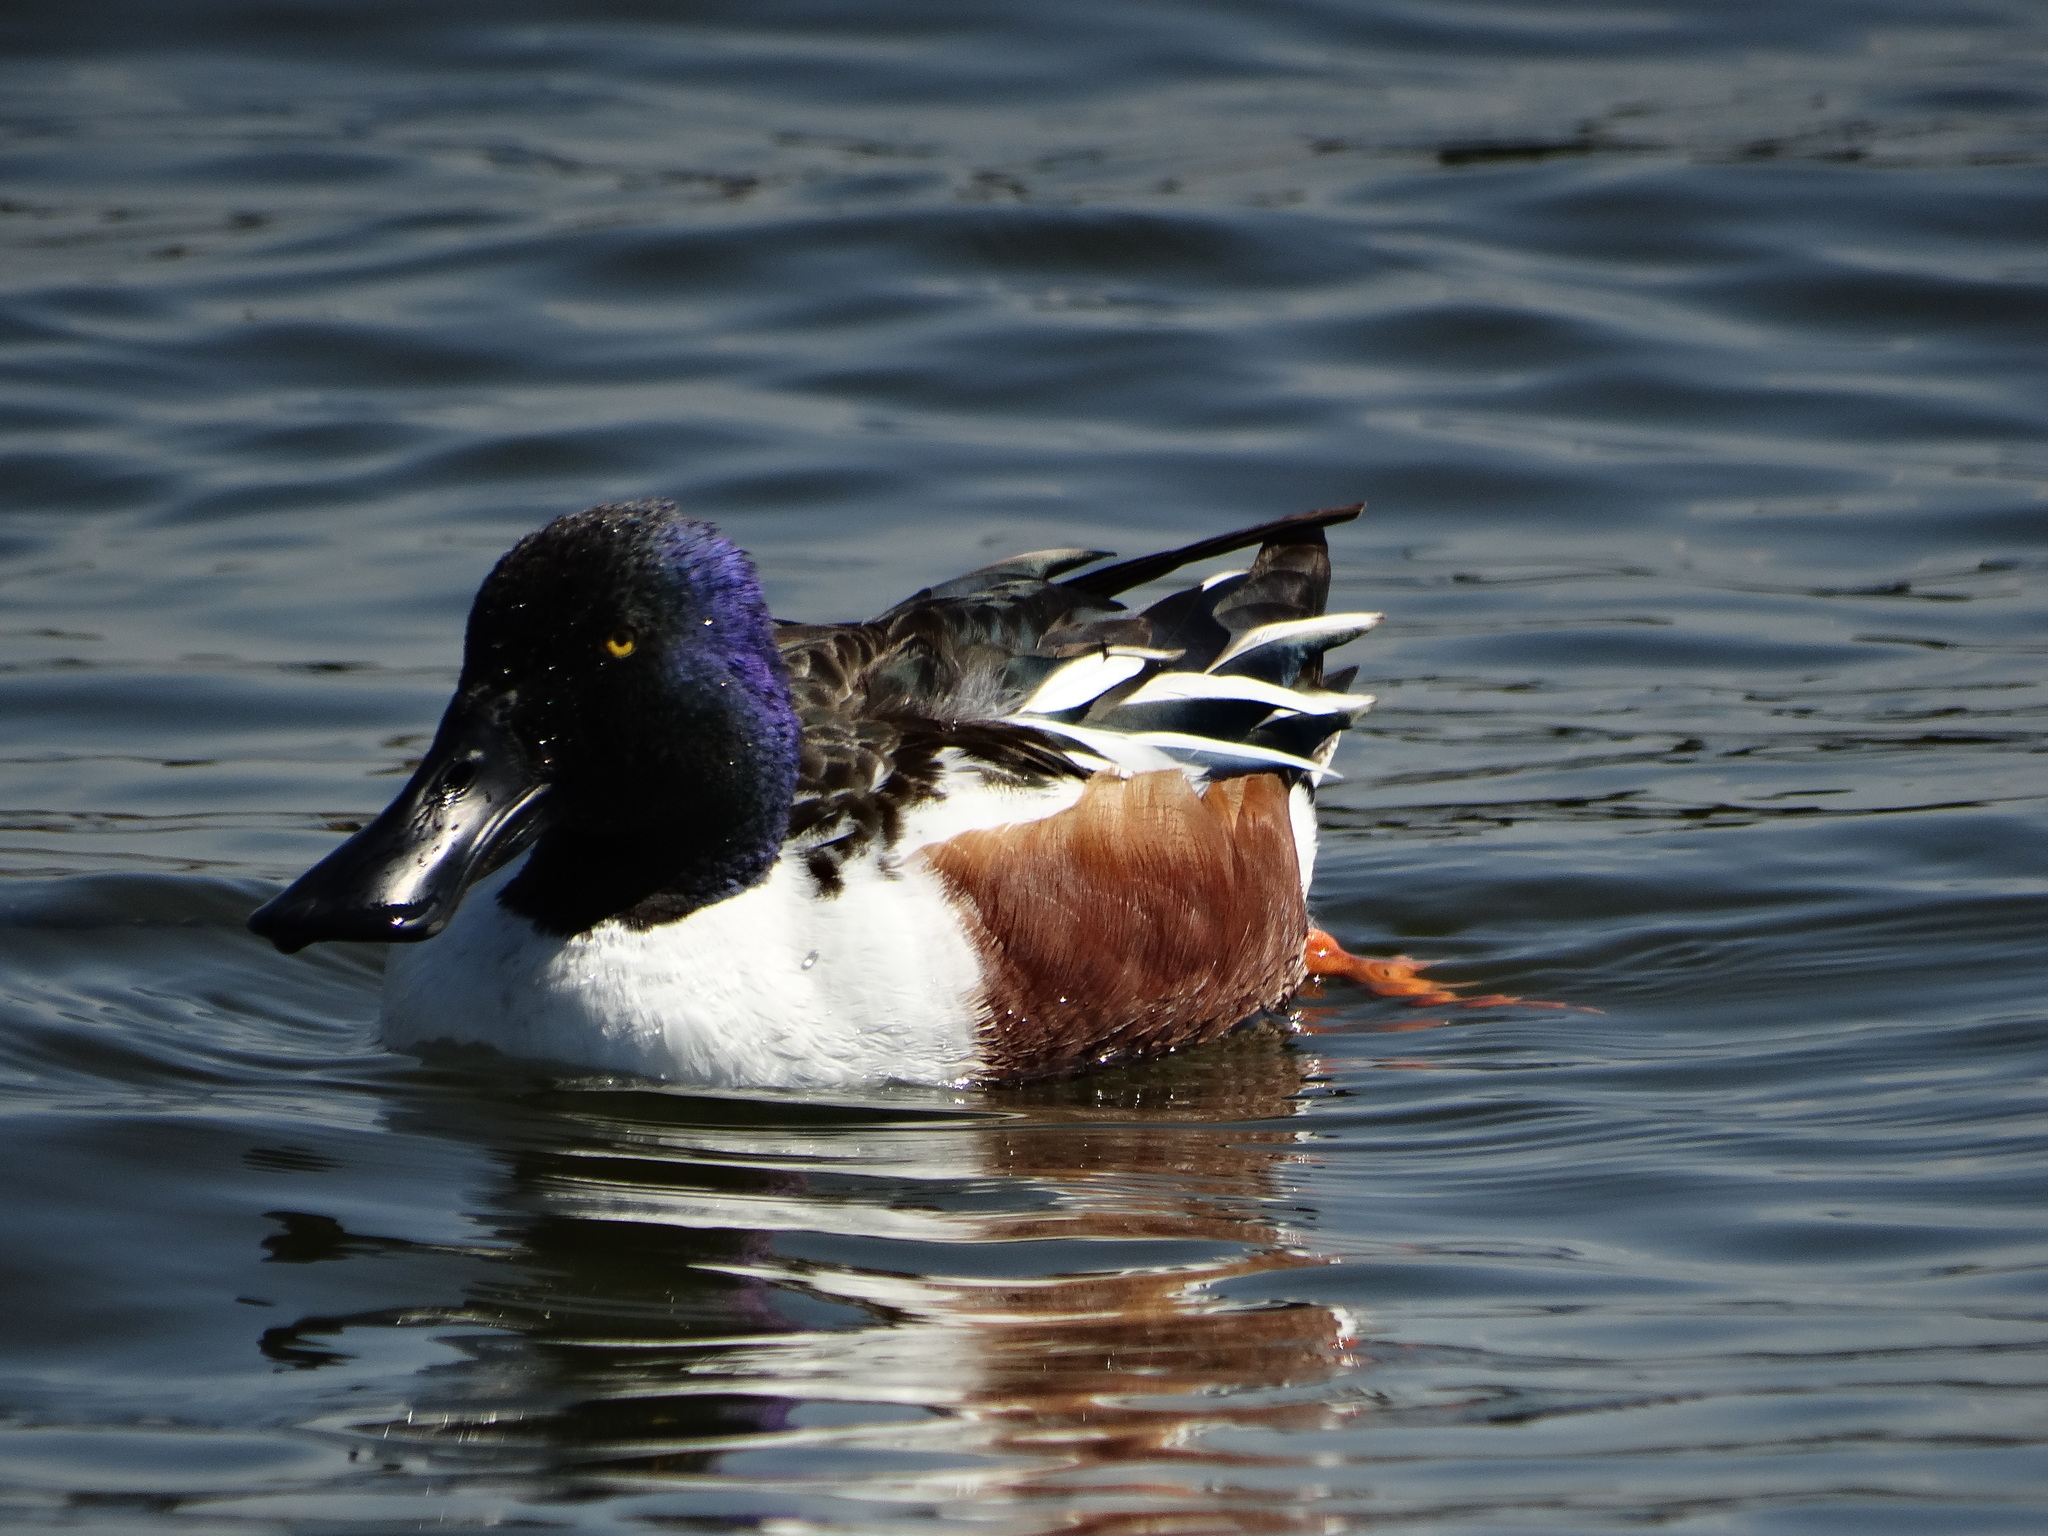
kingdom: Animalia
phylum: Chordata
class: Aves
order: Anseriformes
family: Anatidae
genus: Spatula
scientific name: Spatula clypeata
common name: Northern shoveler
